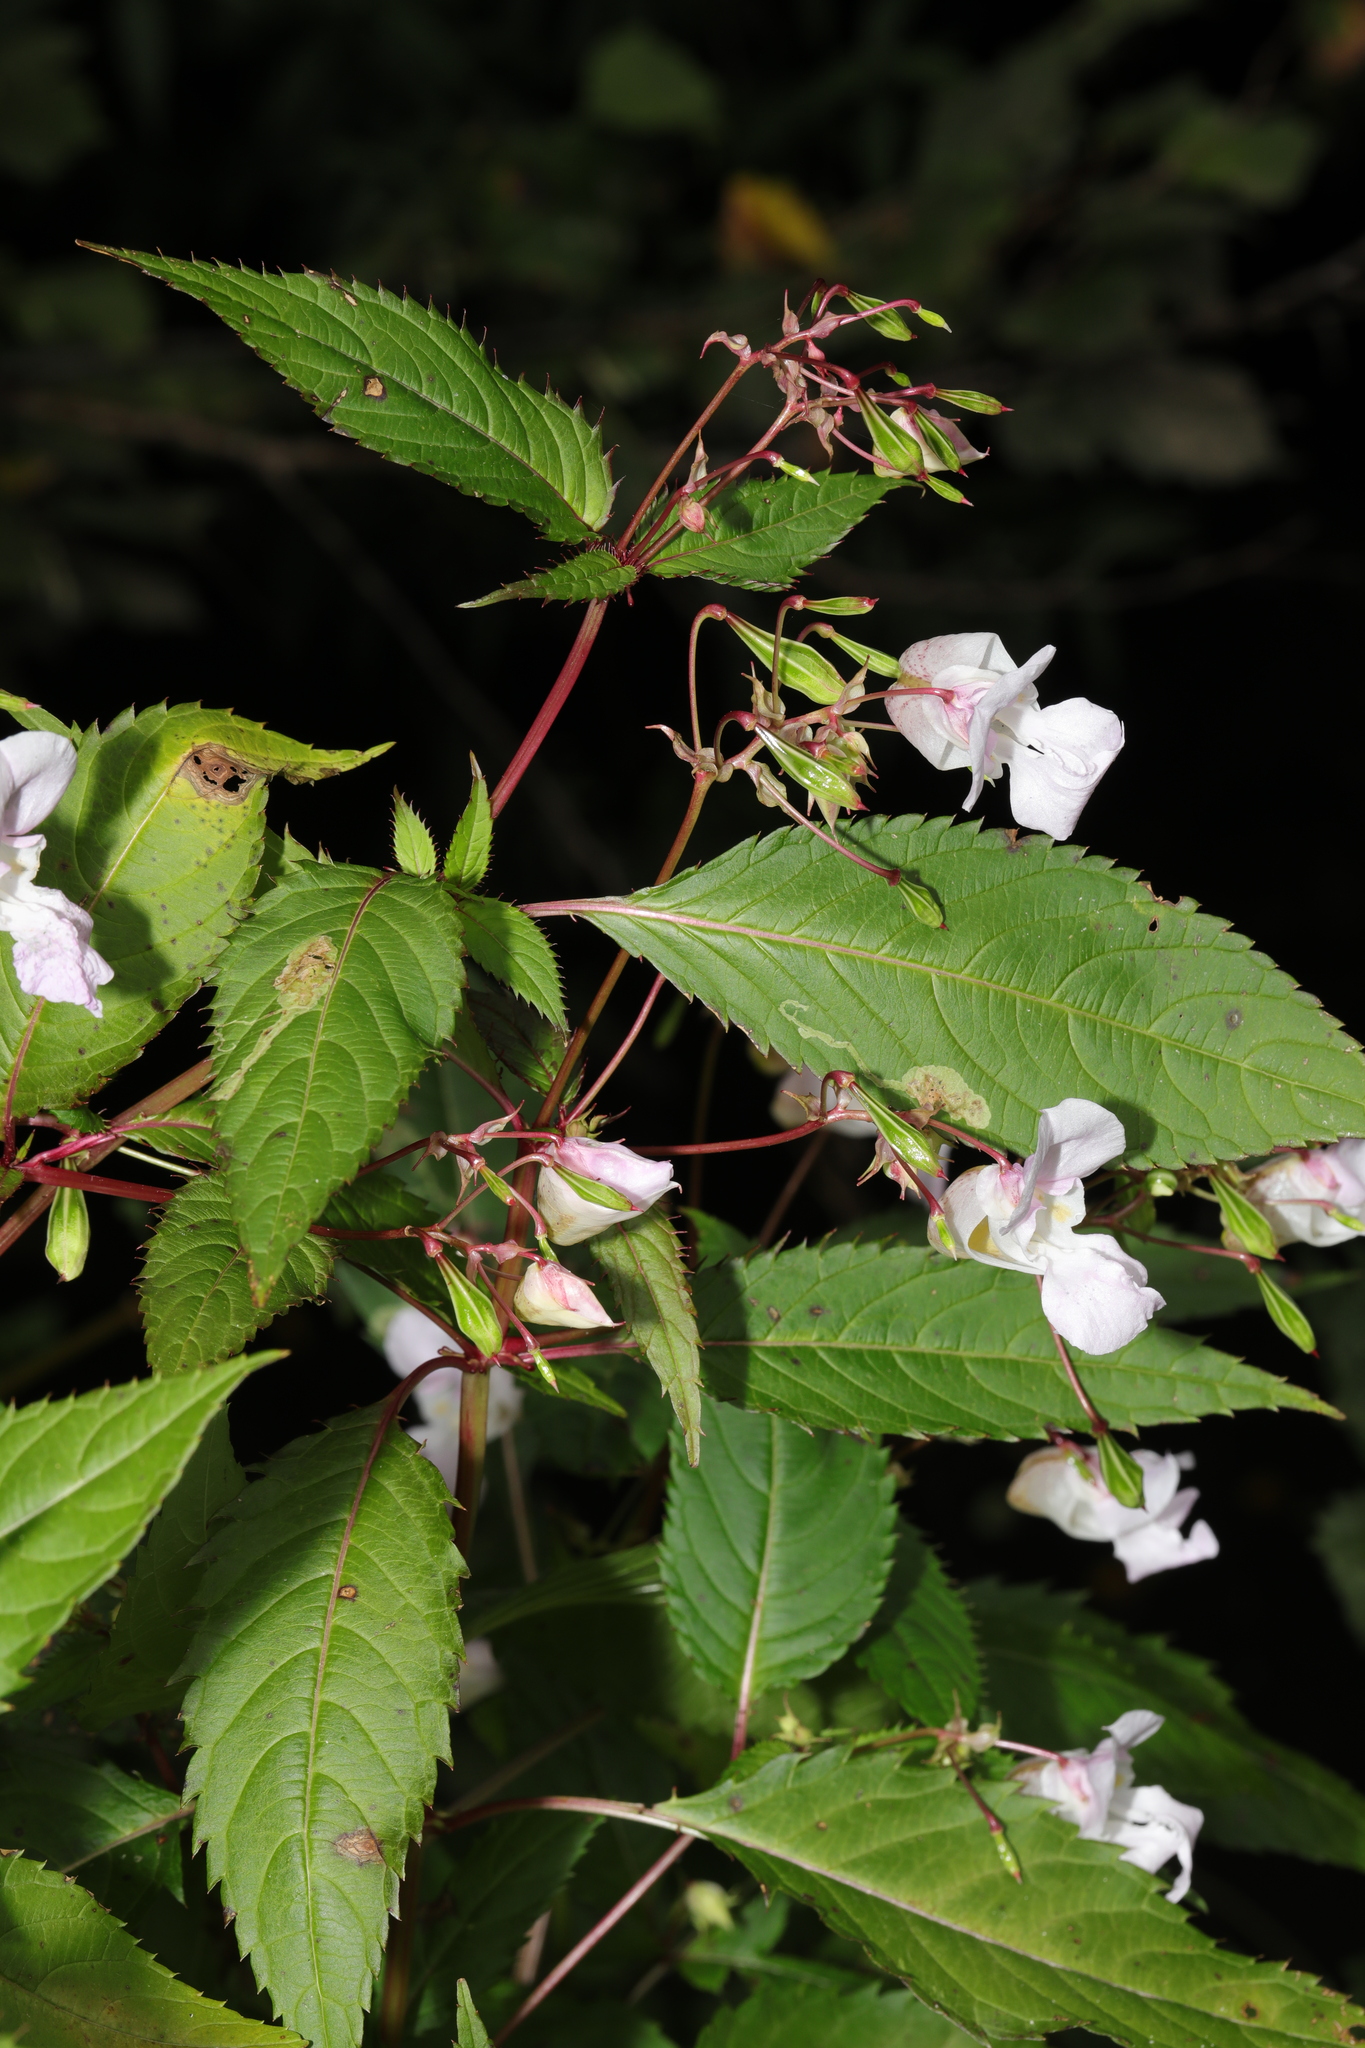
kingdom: Plantae
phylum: Tracheophyta
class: Magnoliopsida
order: Ericales
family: Balsaminaceae
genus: Impatiens
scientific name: Impatiens glandulifera
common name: Himalayan balsam
